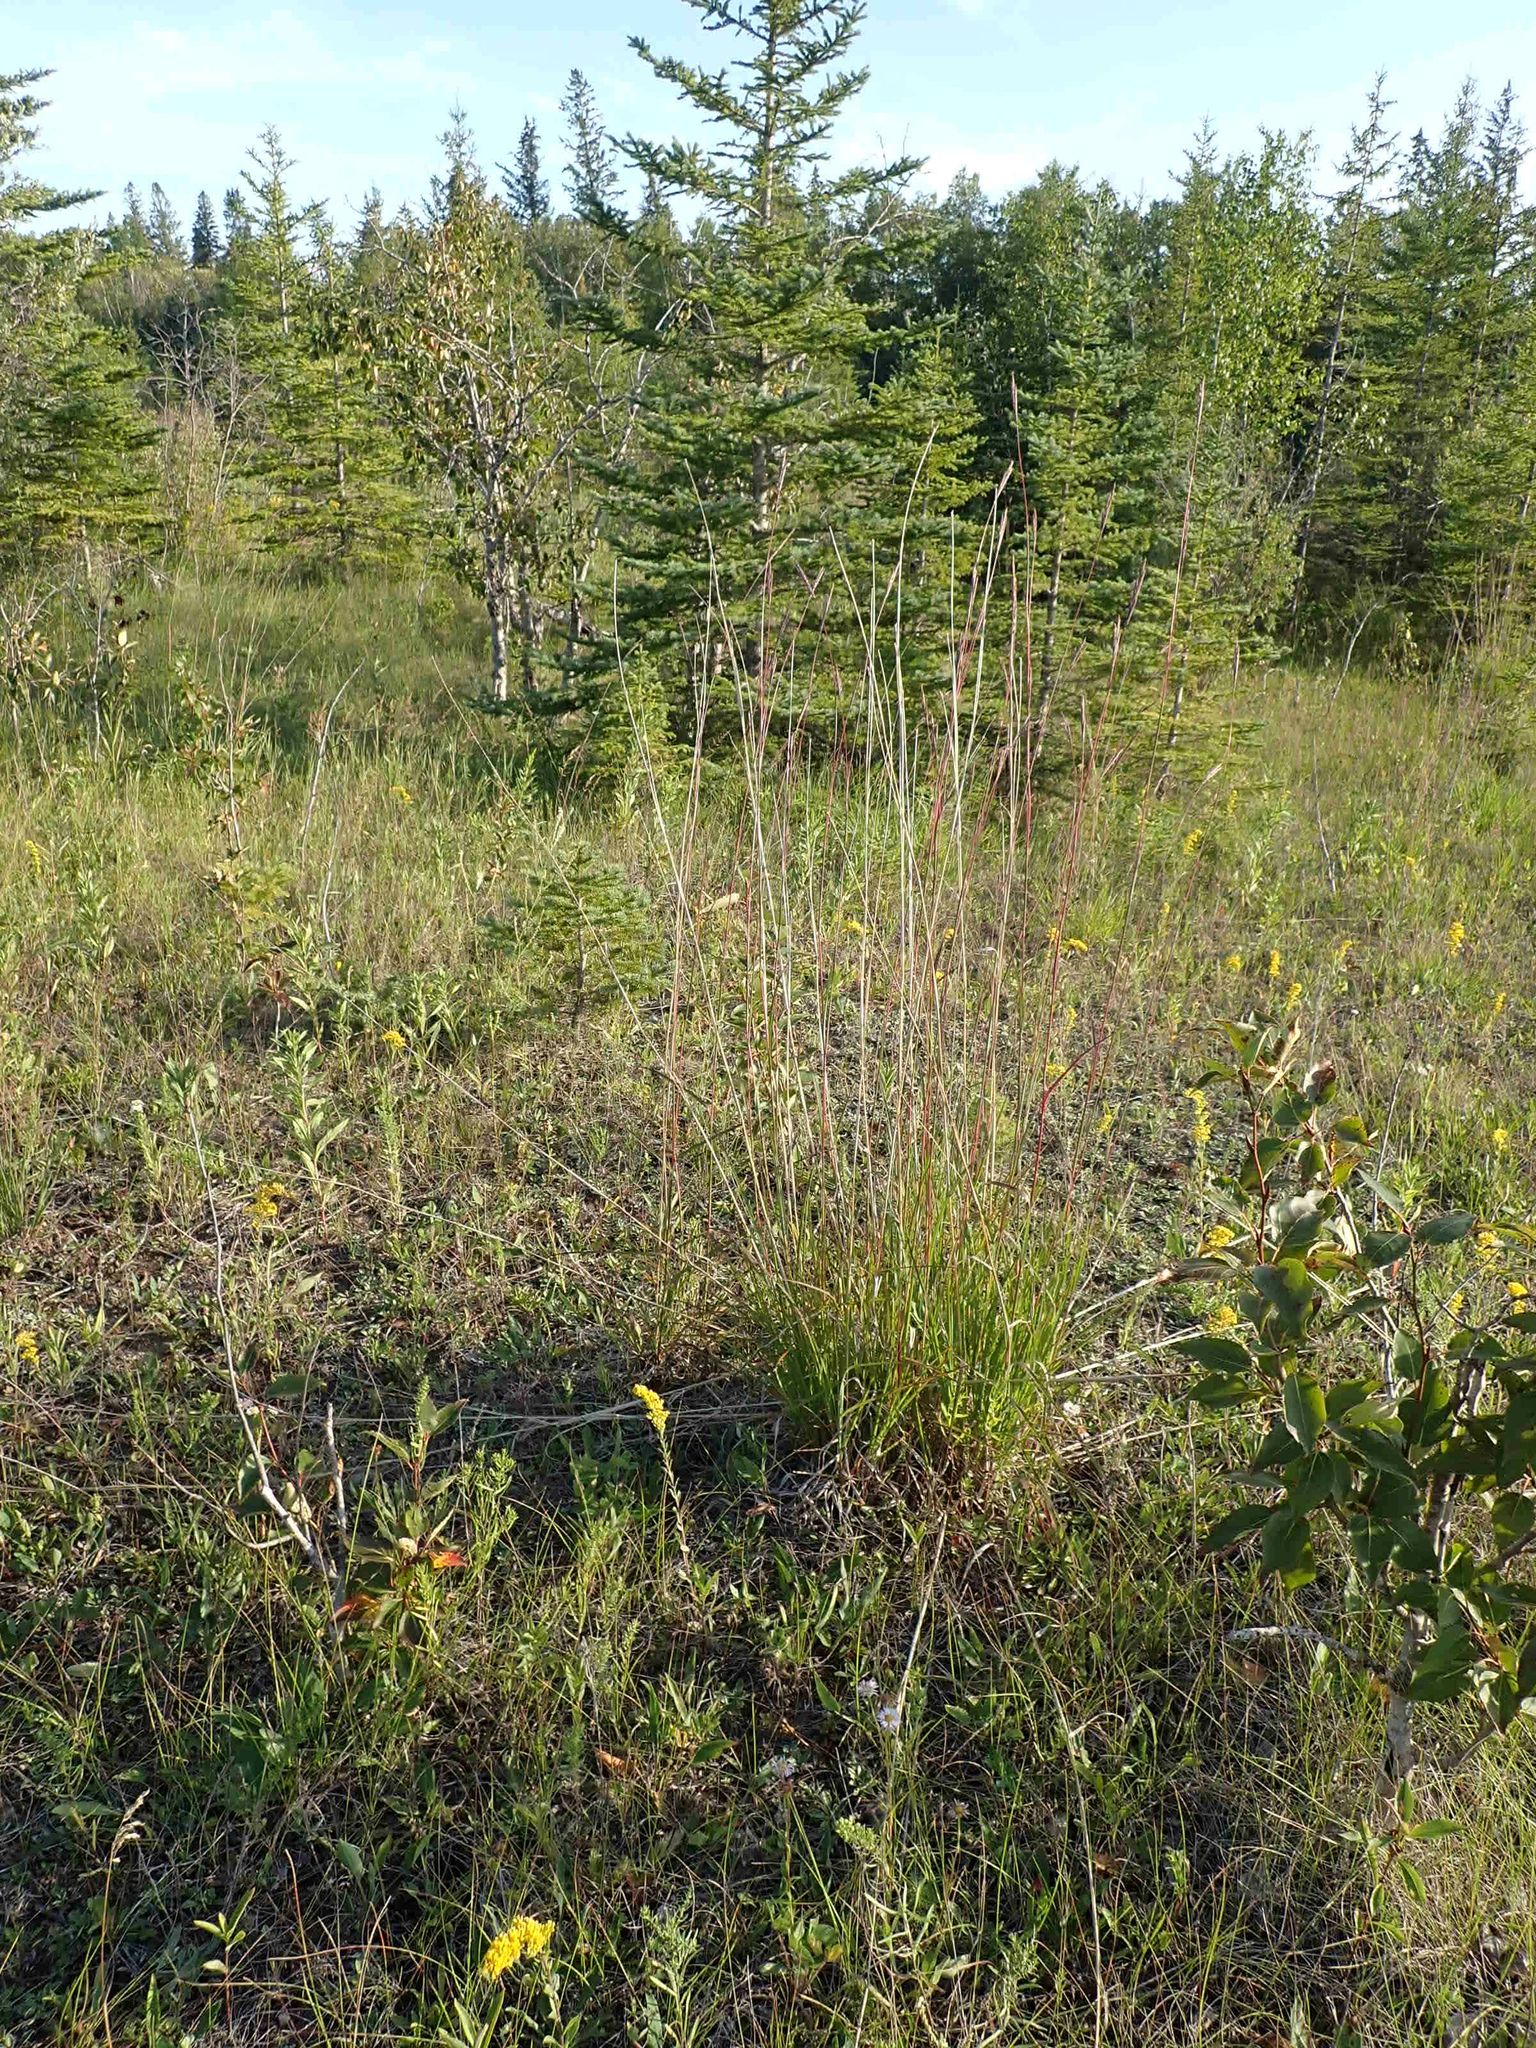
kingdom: Plantae
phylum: Tracheophyta
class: Liliopsida
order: Poales
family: Poaceae
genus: Andropogon
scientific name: Andropogon gerardi
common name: Big bluestem
